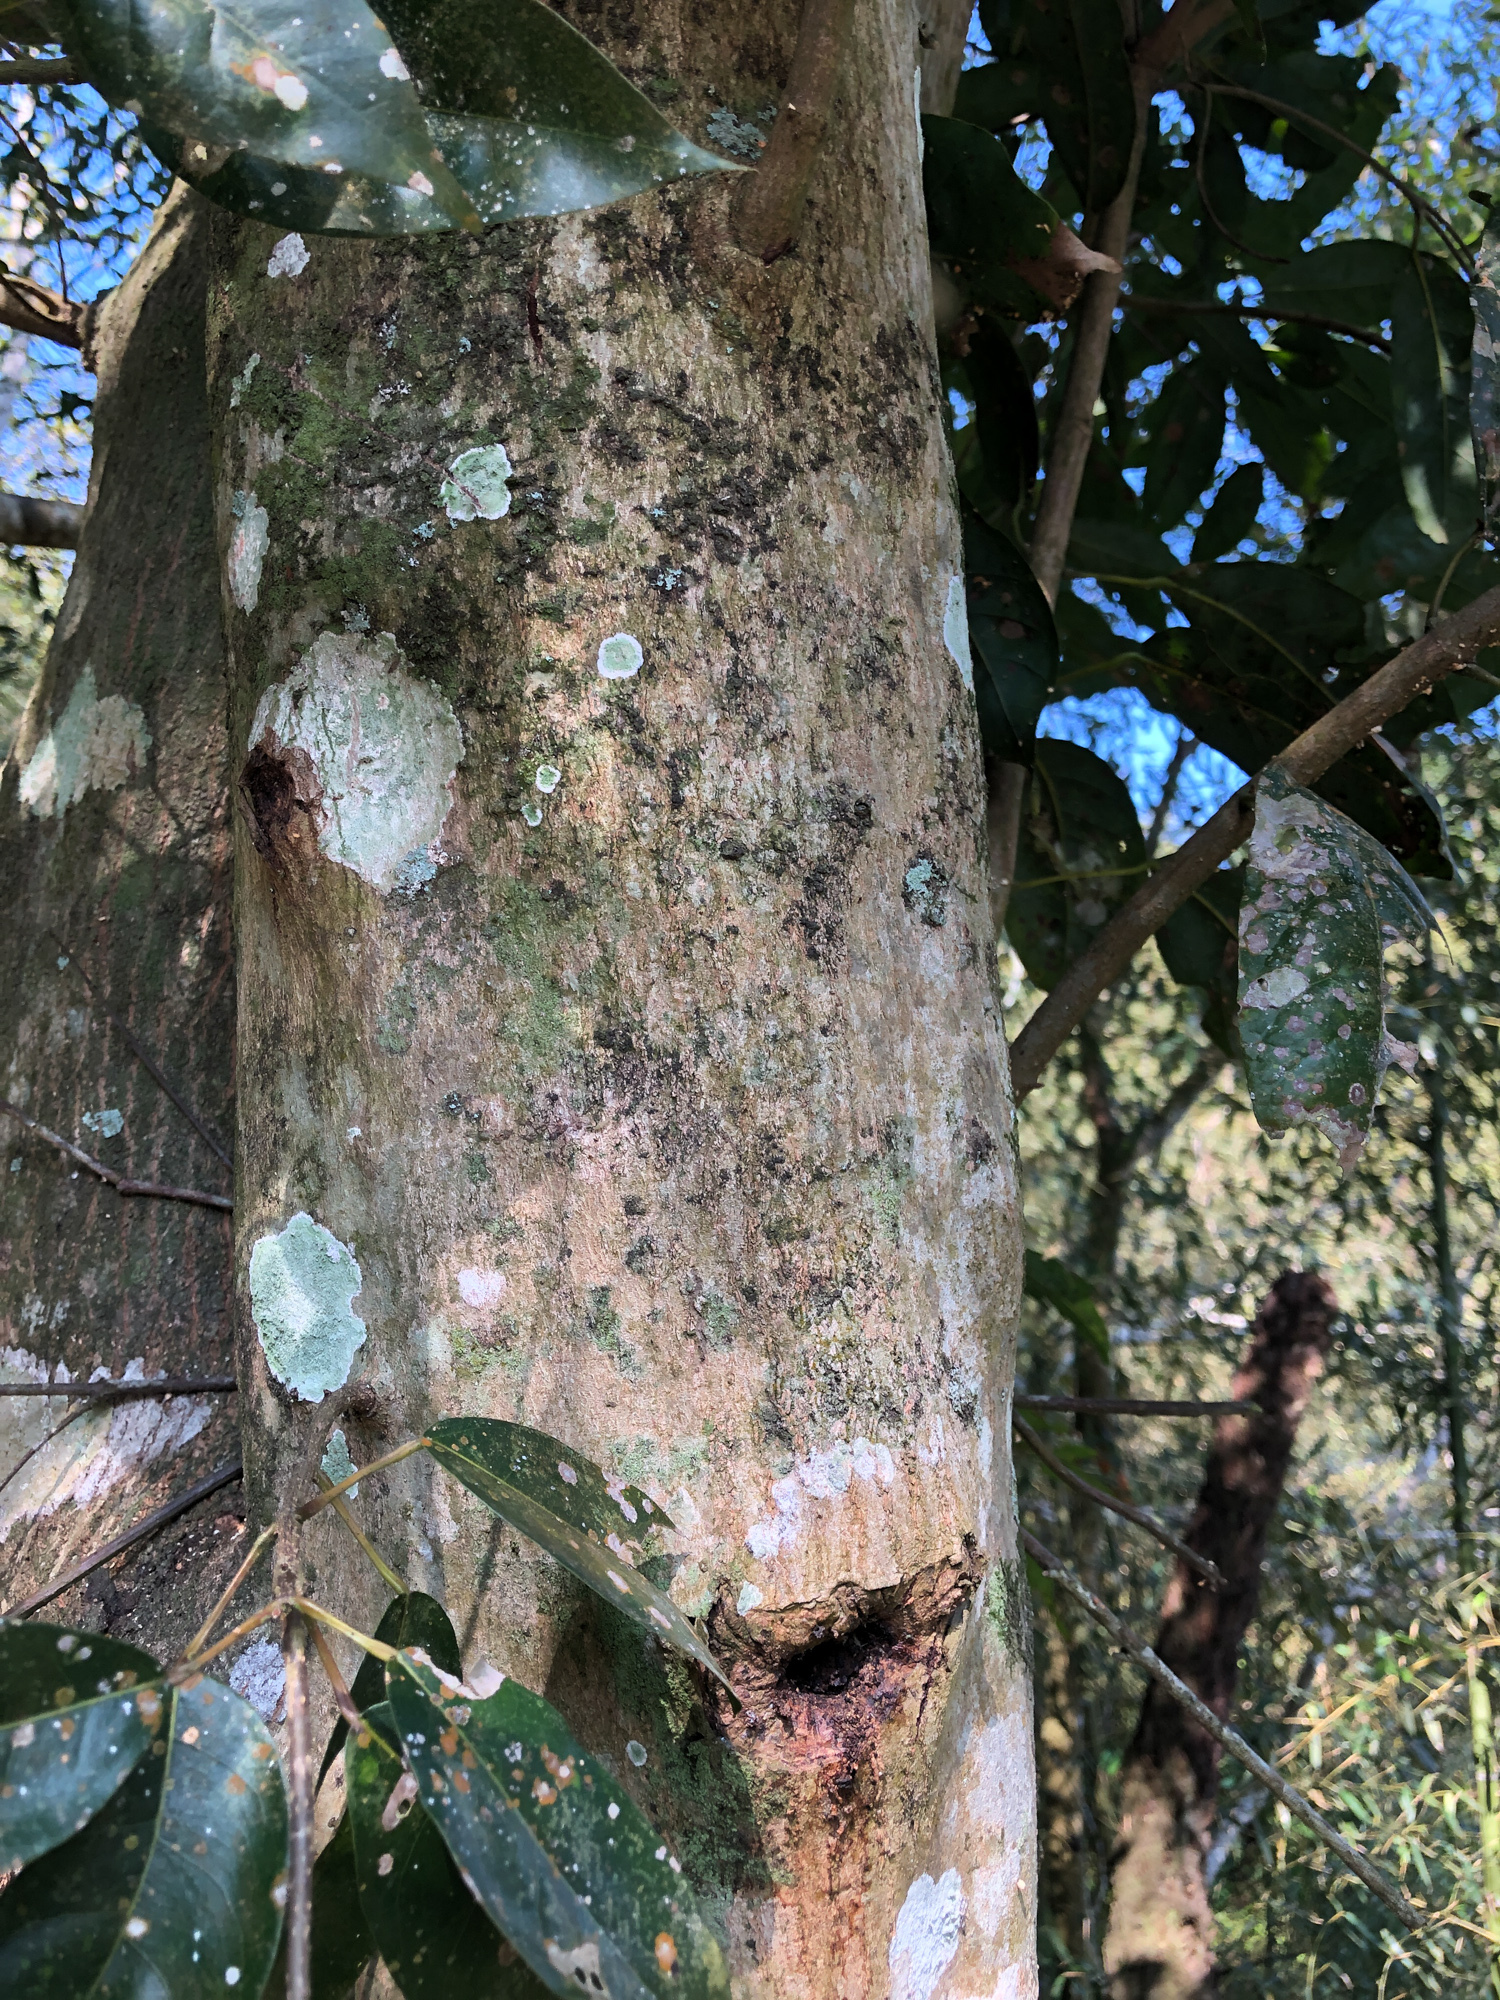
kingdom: Plantae
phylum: Tracheophyta
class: Magnoliopsida
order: Sapindales
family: Sapindaceae
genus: Acer
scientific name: Acer oblongum
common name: Himalayan maple
